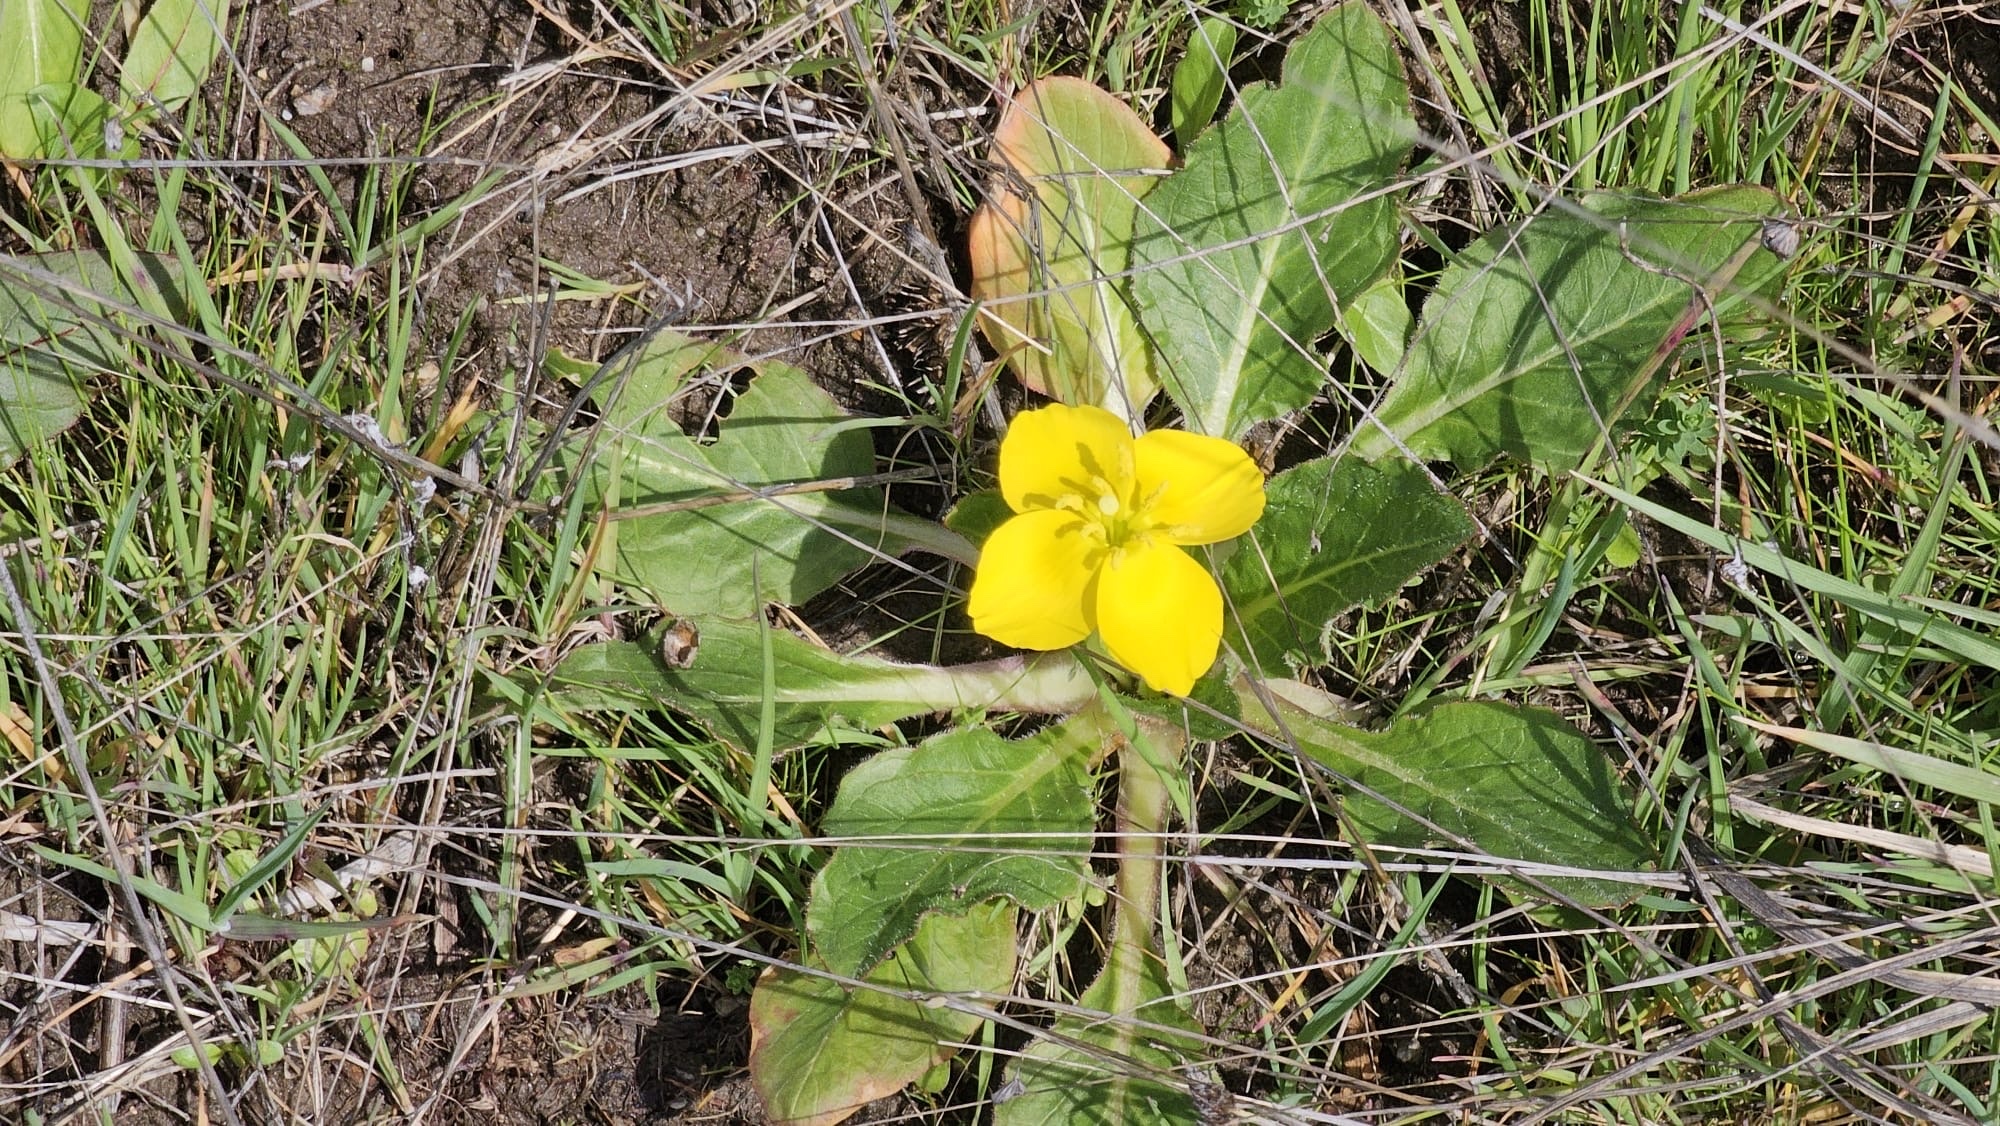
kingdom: Plantae
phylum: Tracheophyta
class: Magnoliopsida
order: Myrtales
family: Onagraceae
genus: Taraxia
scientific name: Taraxia ovata
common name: Goldeneggs
